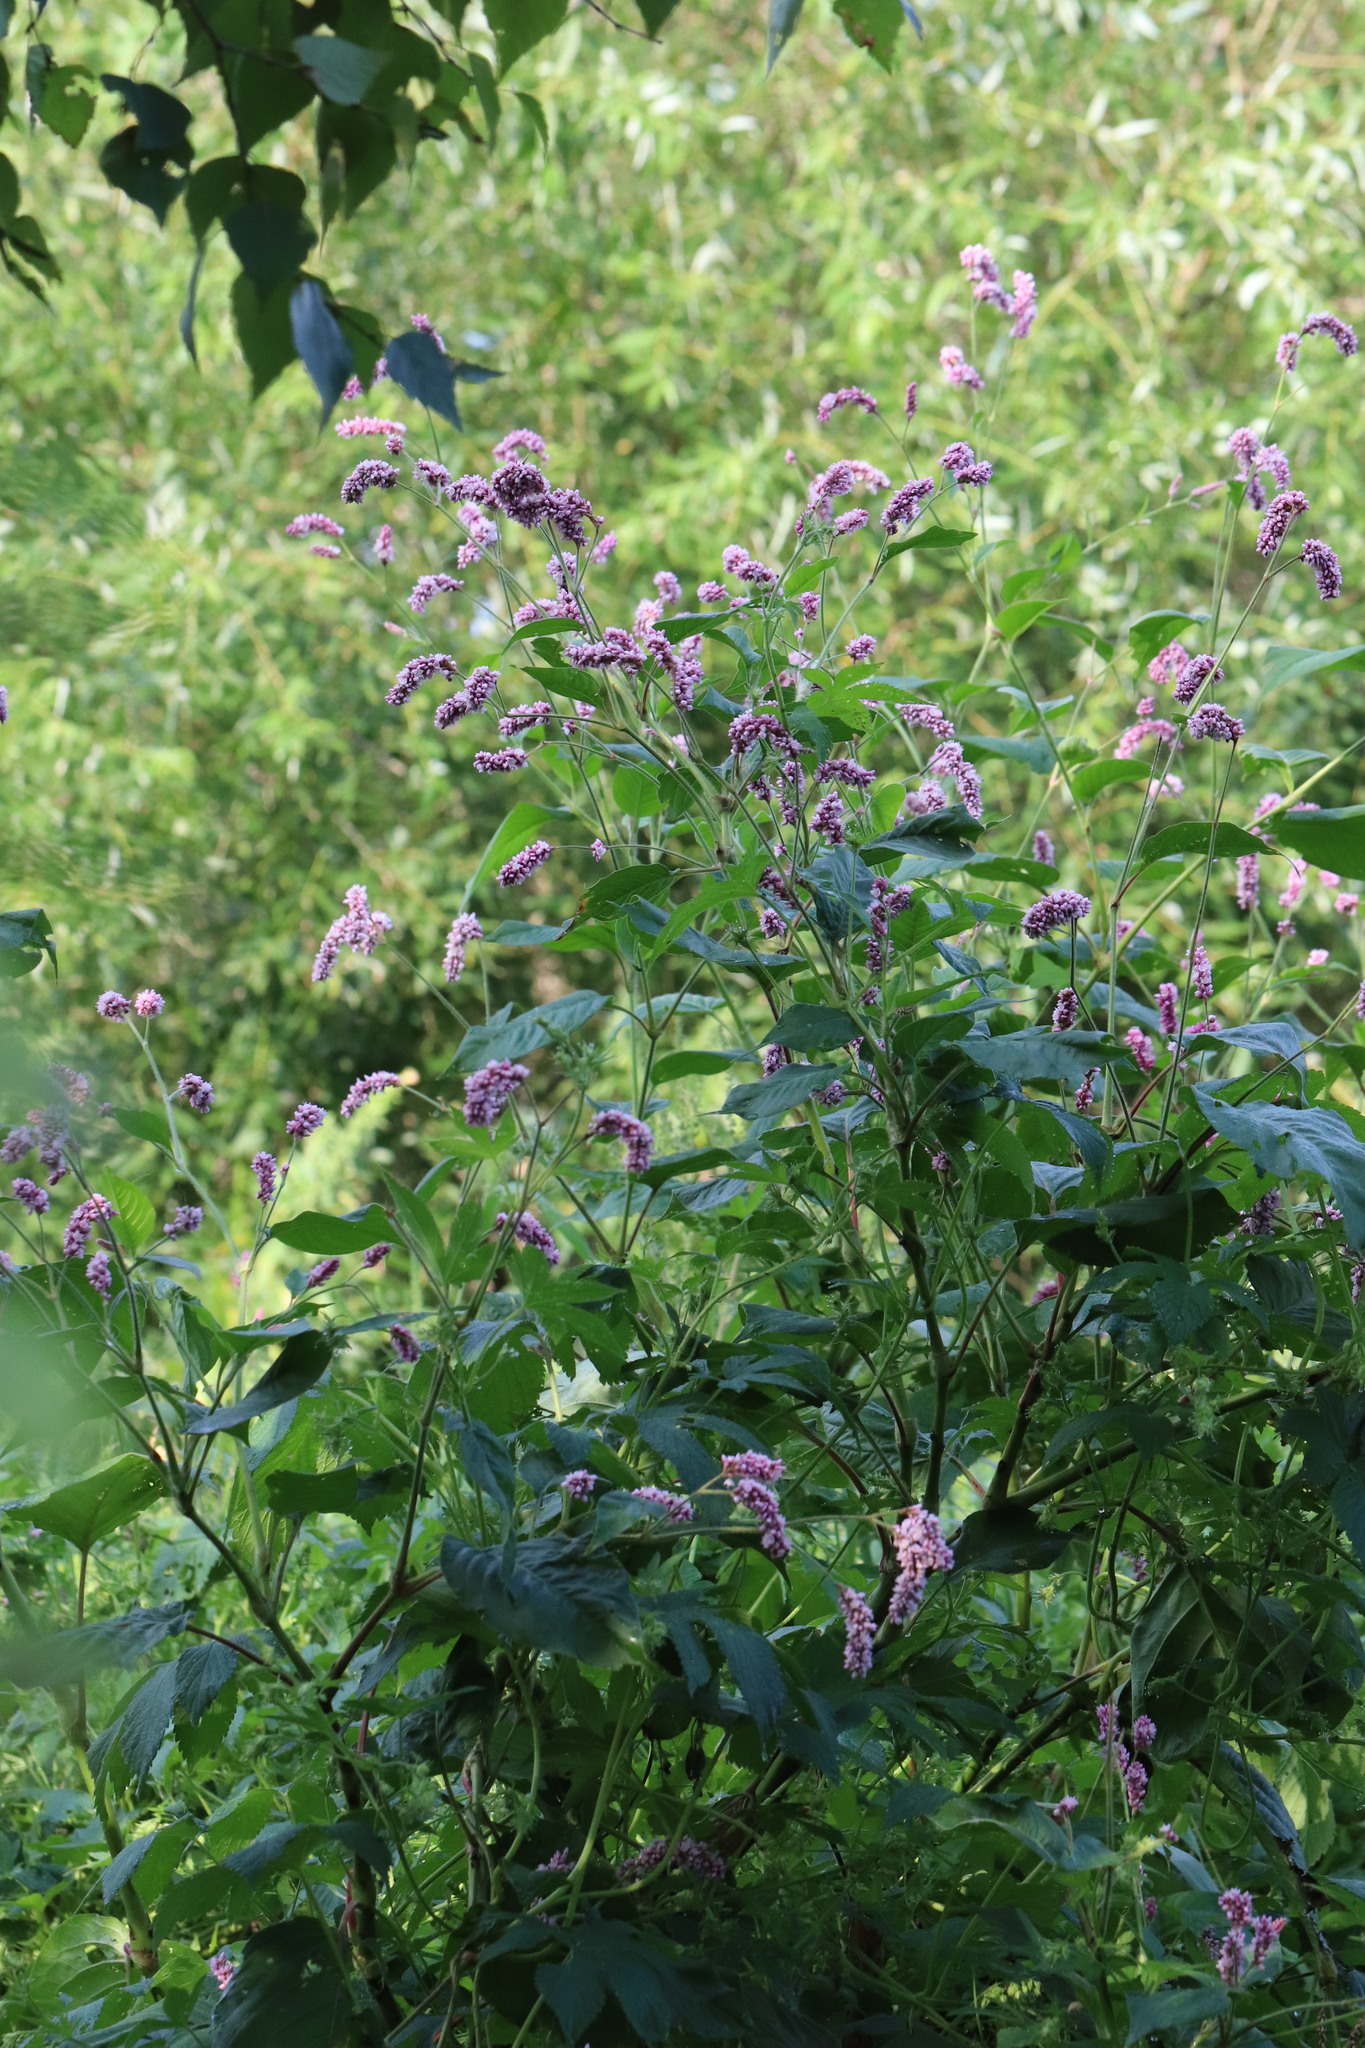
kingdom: Plantae
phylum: Tracheophyta
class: Magnoliopsida
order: Caryophyllales
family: Polygonaceae
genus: Persicaria
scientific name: Persicaria orientalis
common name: Kiss-me-over-the-garden-gate
